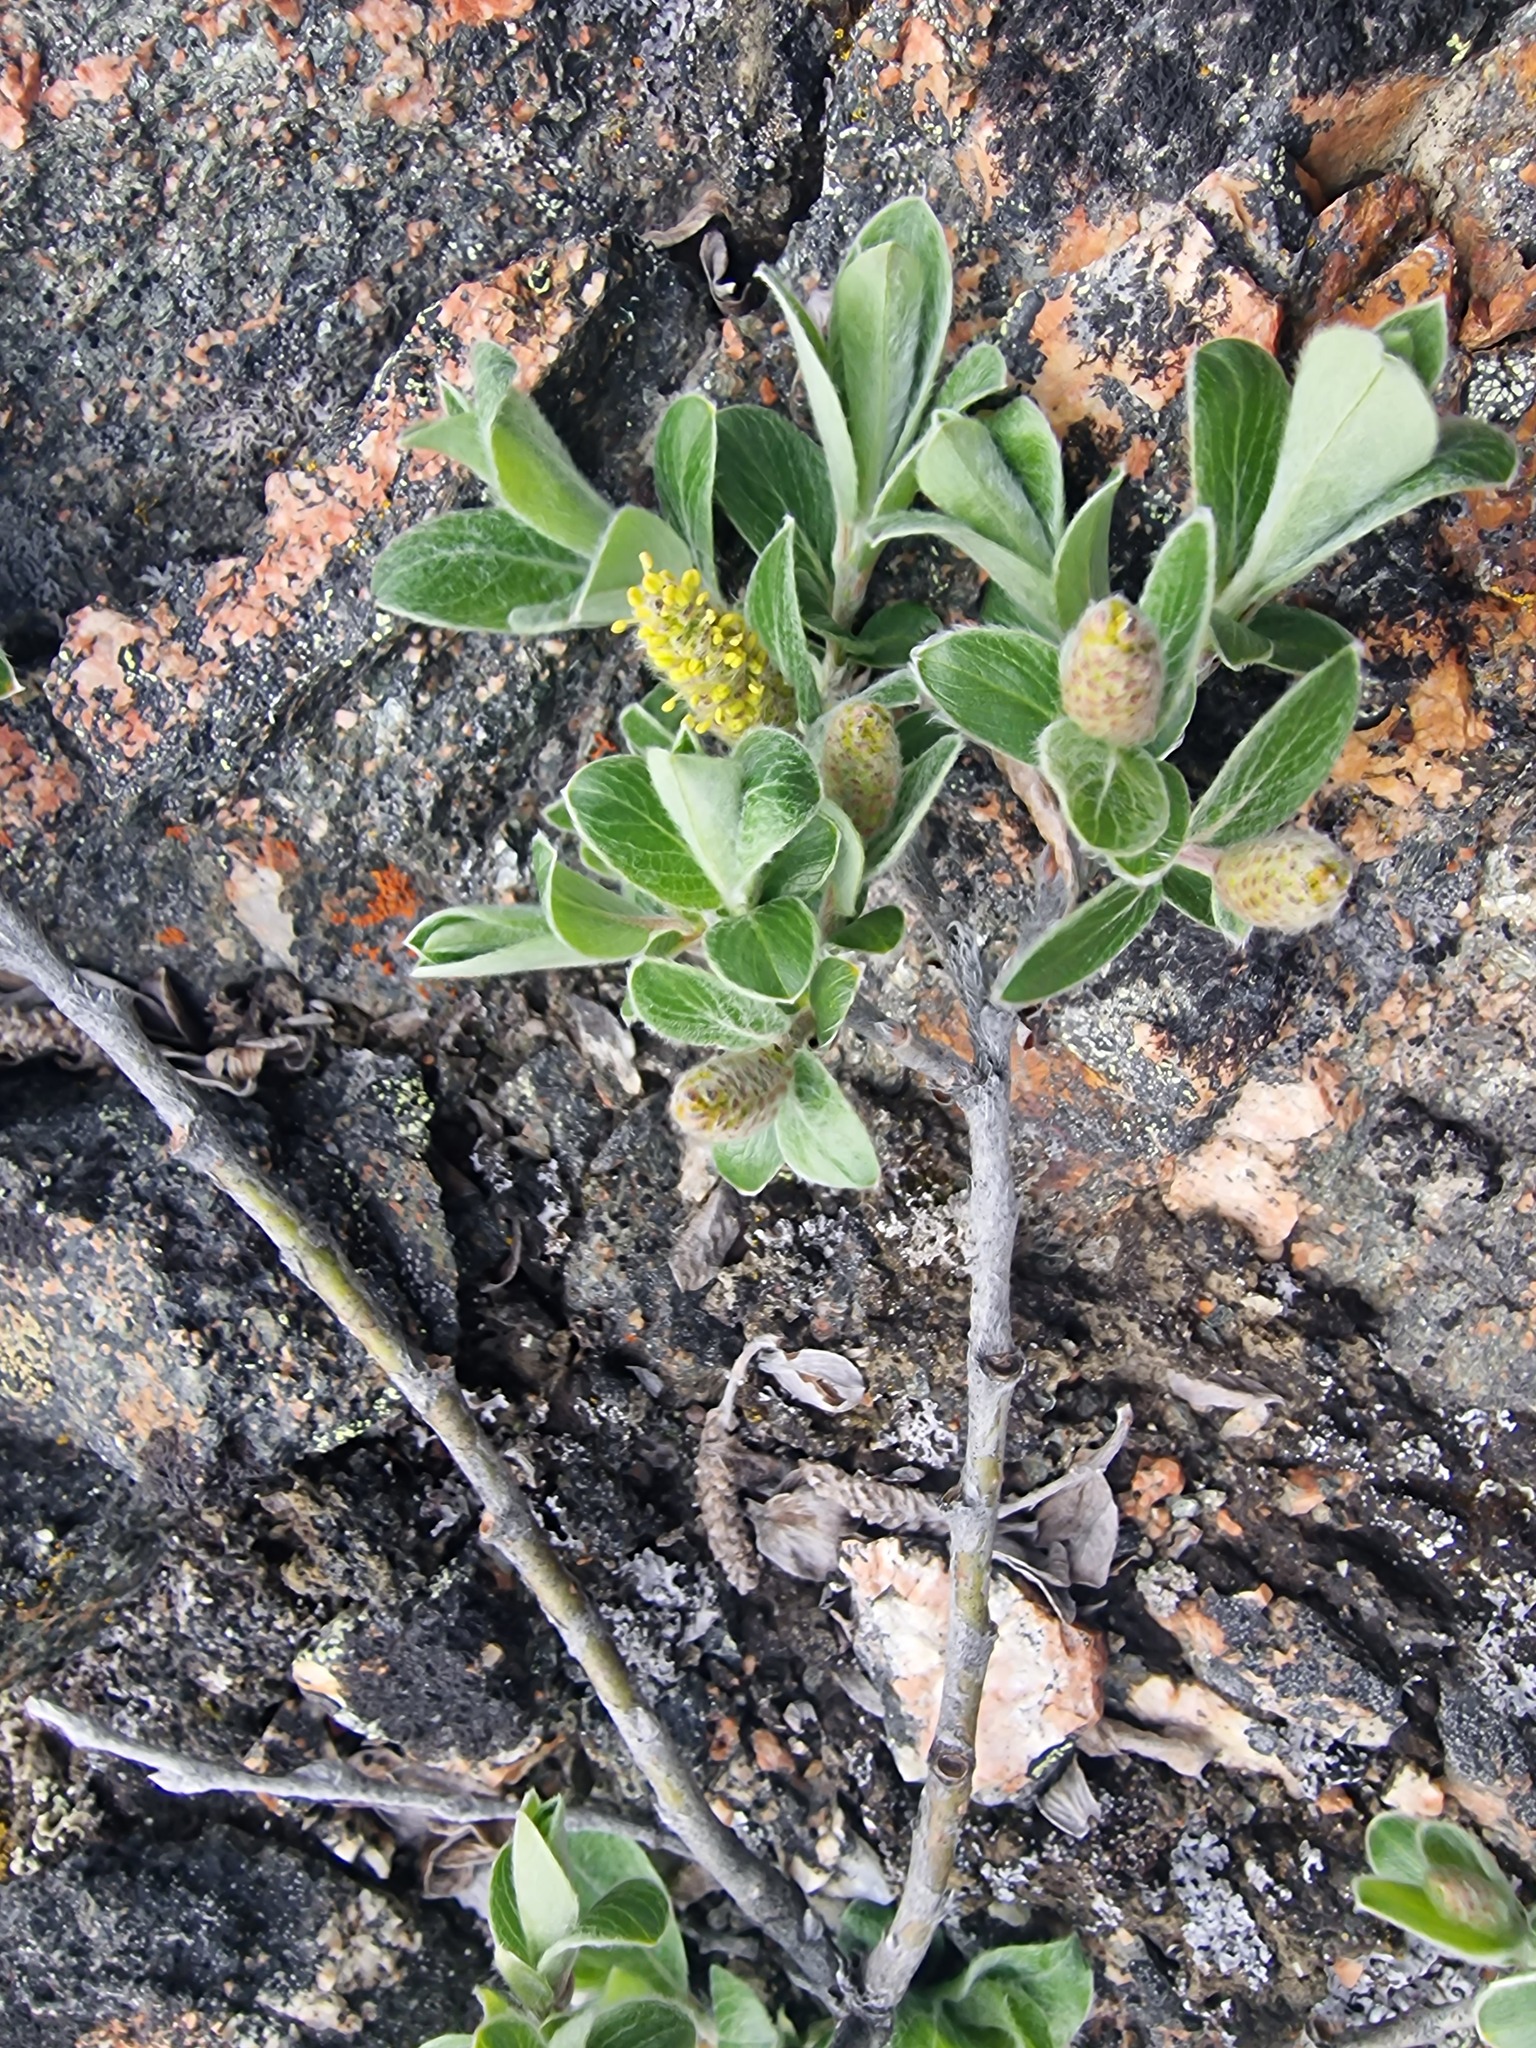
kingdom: Plantae
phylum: Tracheophyta
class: Magnoliopsida
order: Malpighiales
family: Salicaceae
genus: Salix
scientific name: Salix glauca
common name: Glaucous willow
